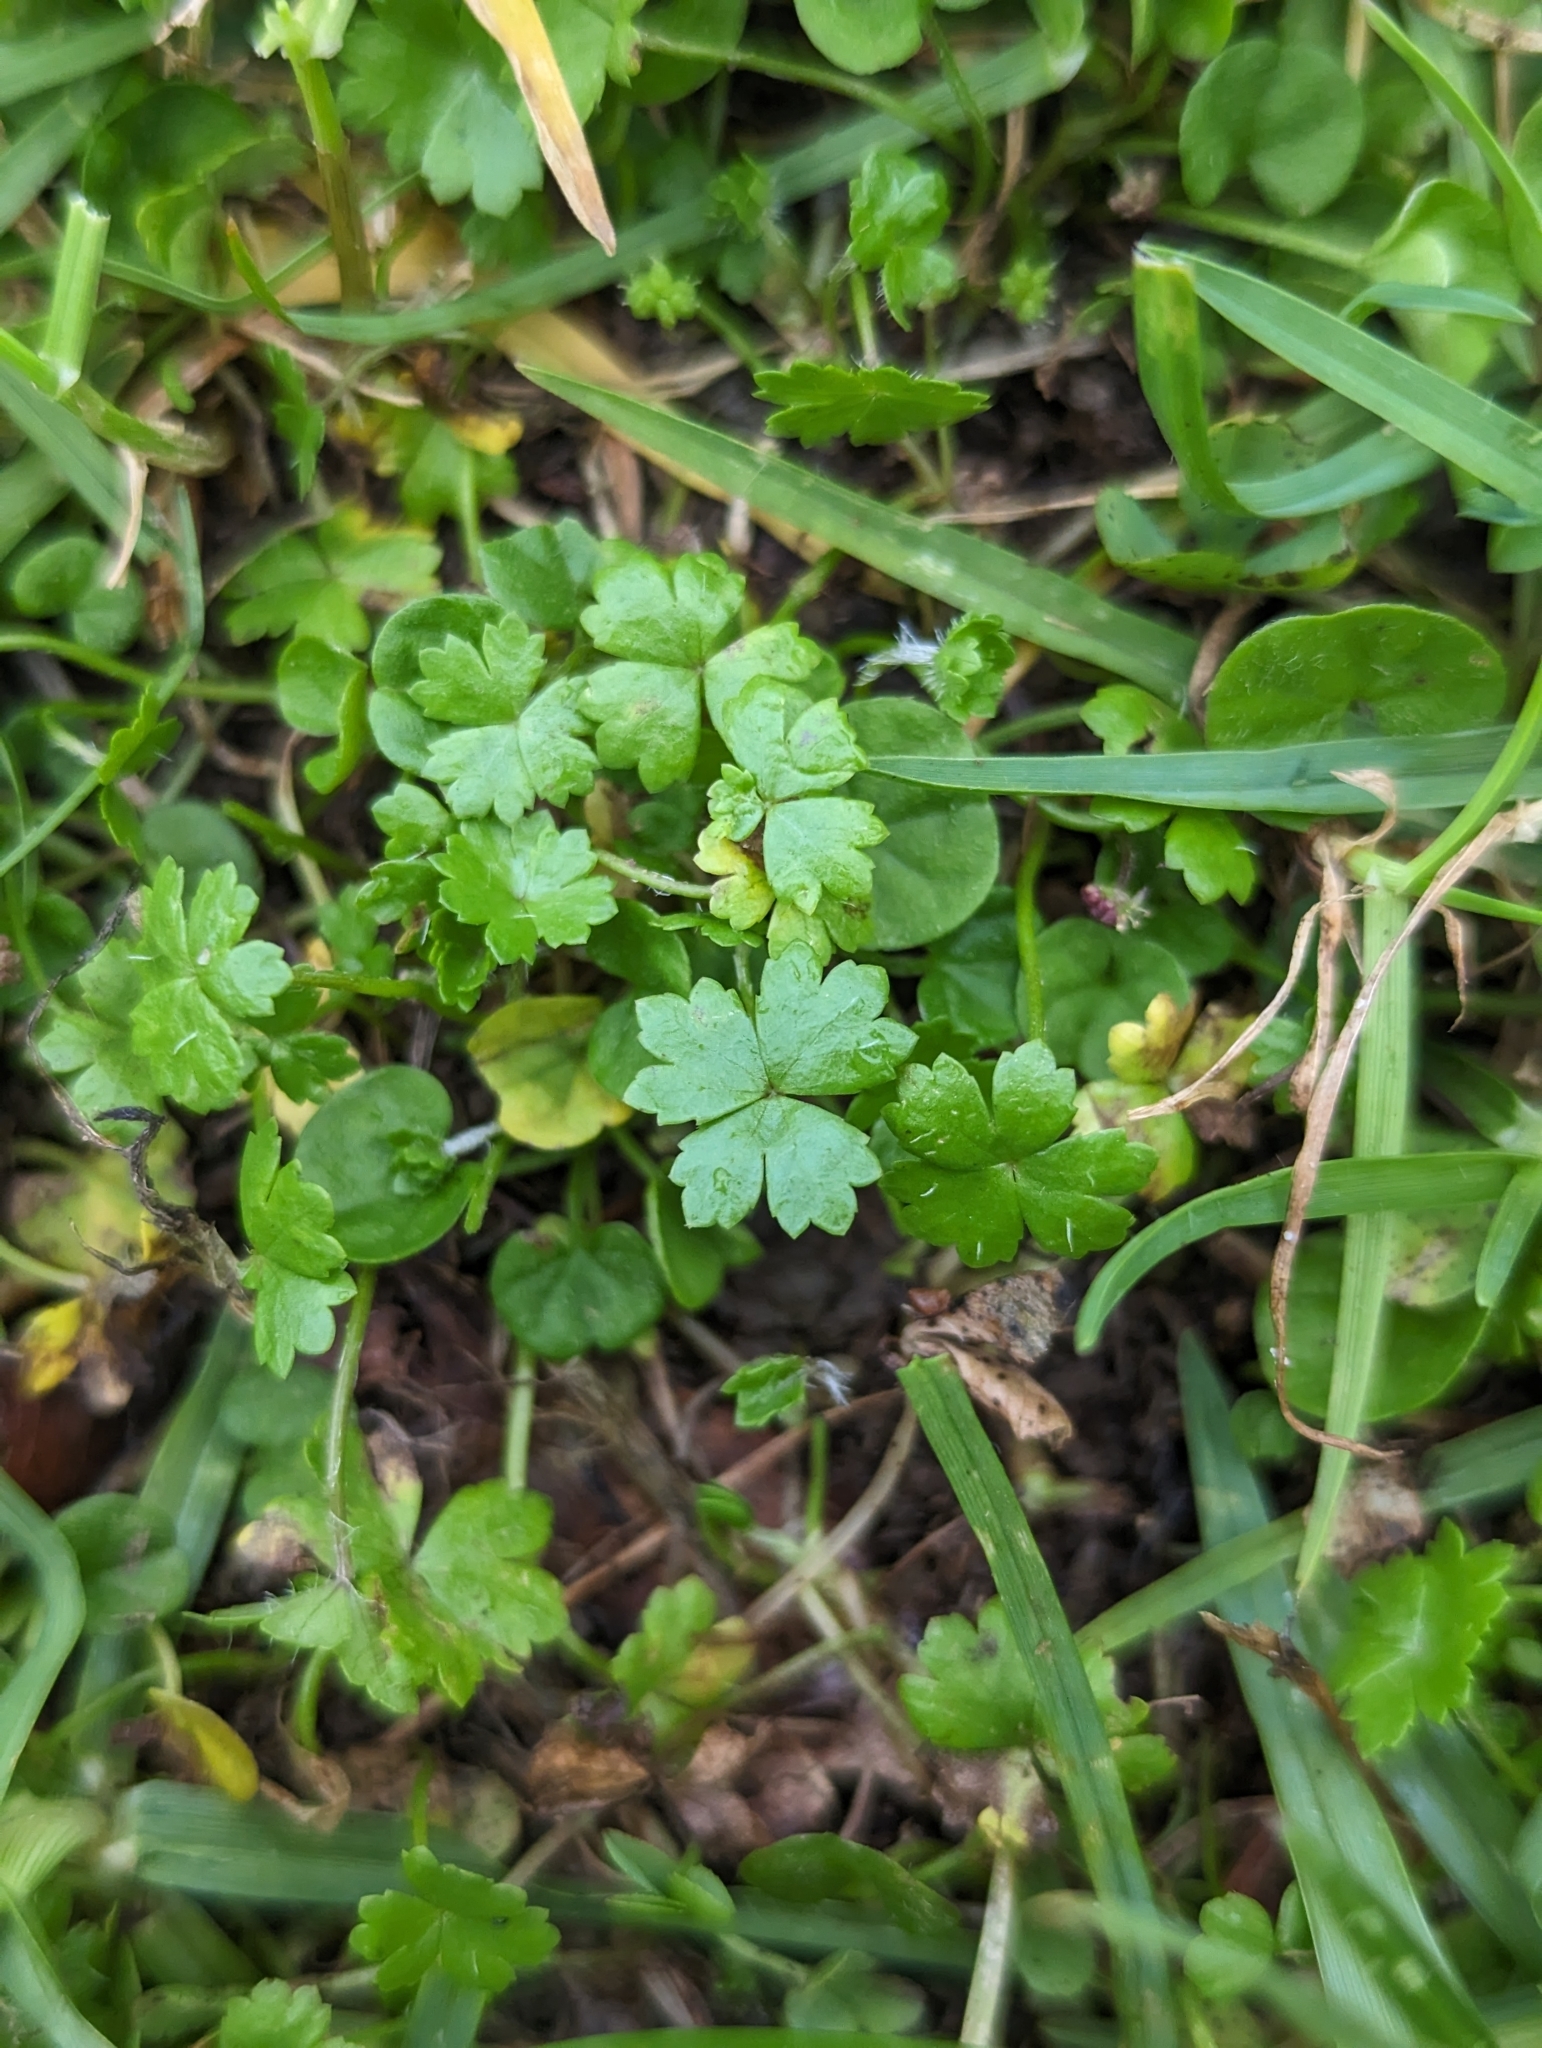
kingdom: Plantae
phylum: Tracheophyta
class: Magnoliopsida
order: Apiales
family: Araliaceae
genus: Hydrocotyle
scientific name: Hydrocotyle tripartita
